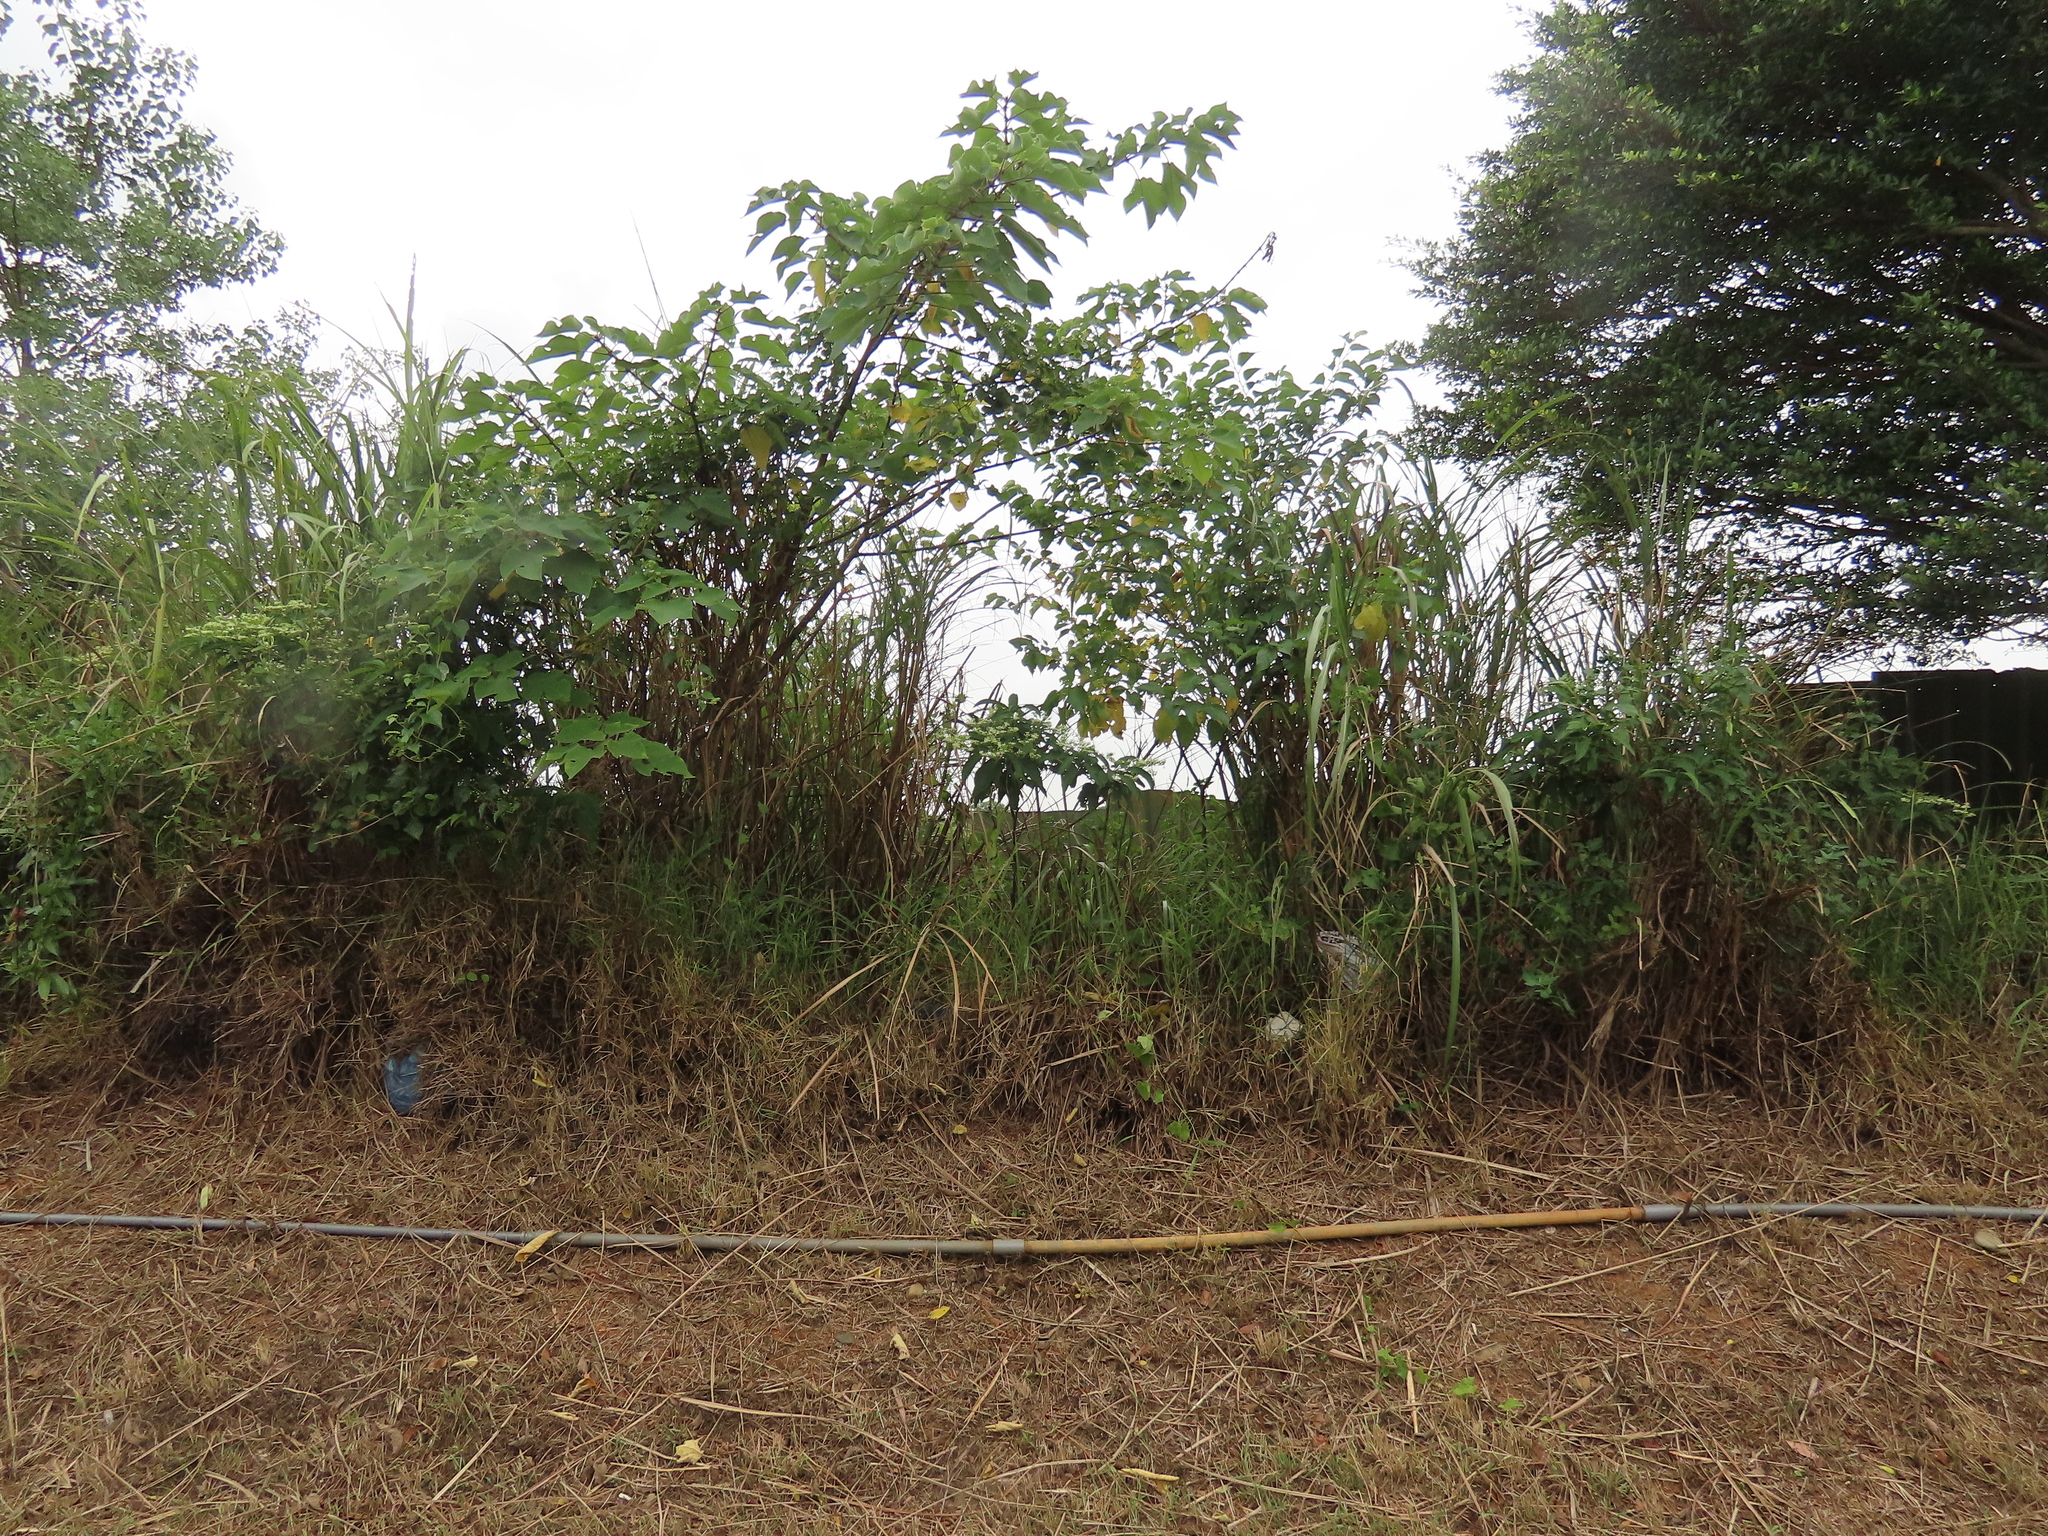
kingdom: Plantae
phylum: Tracheophyta
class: Magnoliopsida
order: Lamiales
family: Lamiaceae
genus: Clerodendrum
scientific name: Clerodendrum cyrtophyllum
